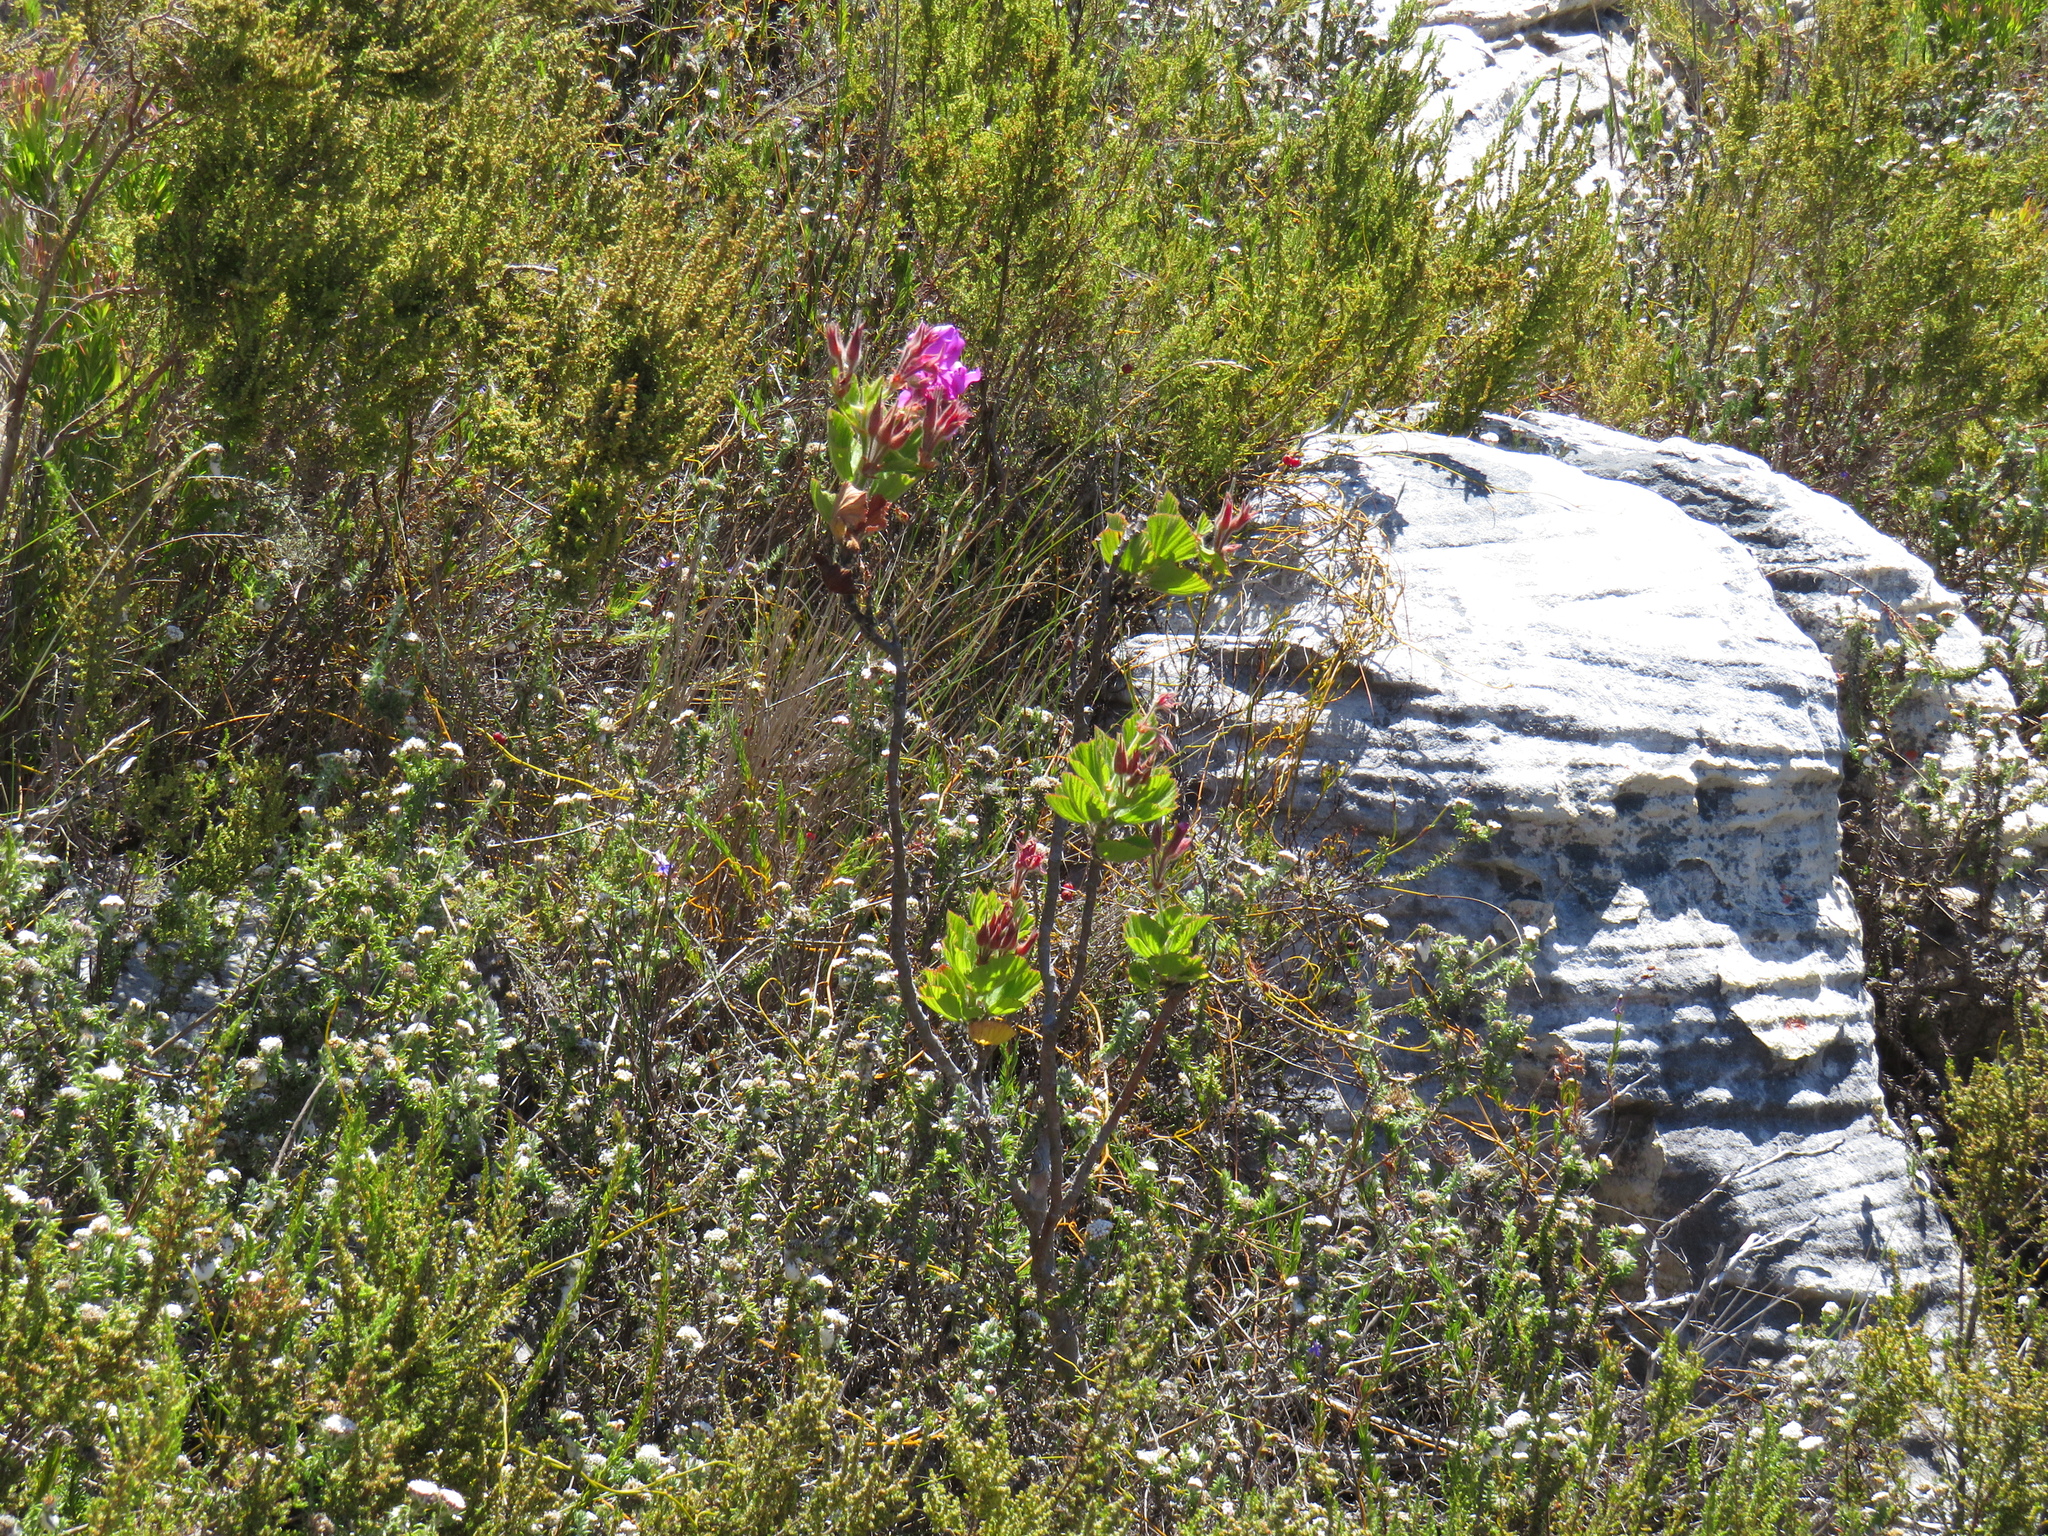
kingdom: Plantae
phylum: Tracheophyta
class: Magnoliopsida
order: Geraniales
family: Geraniaceae
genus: Pelargonium
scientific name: Pelargonium cucullatum
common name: Tree pelargonium
